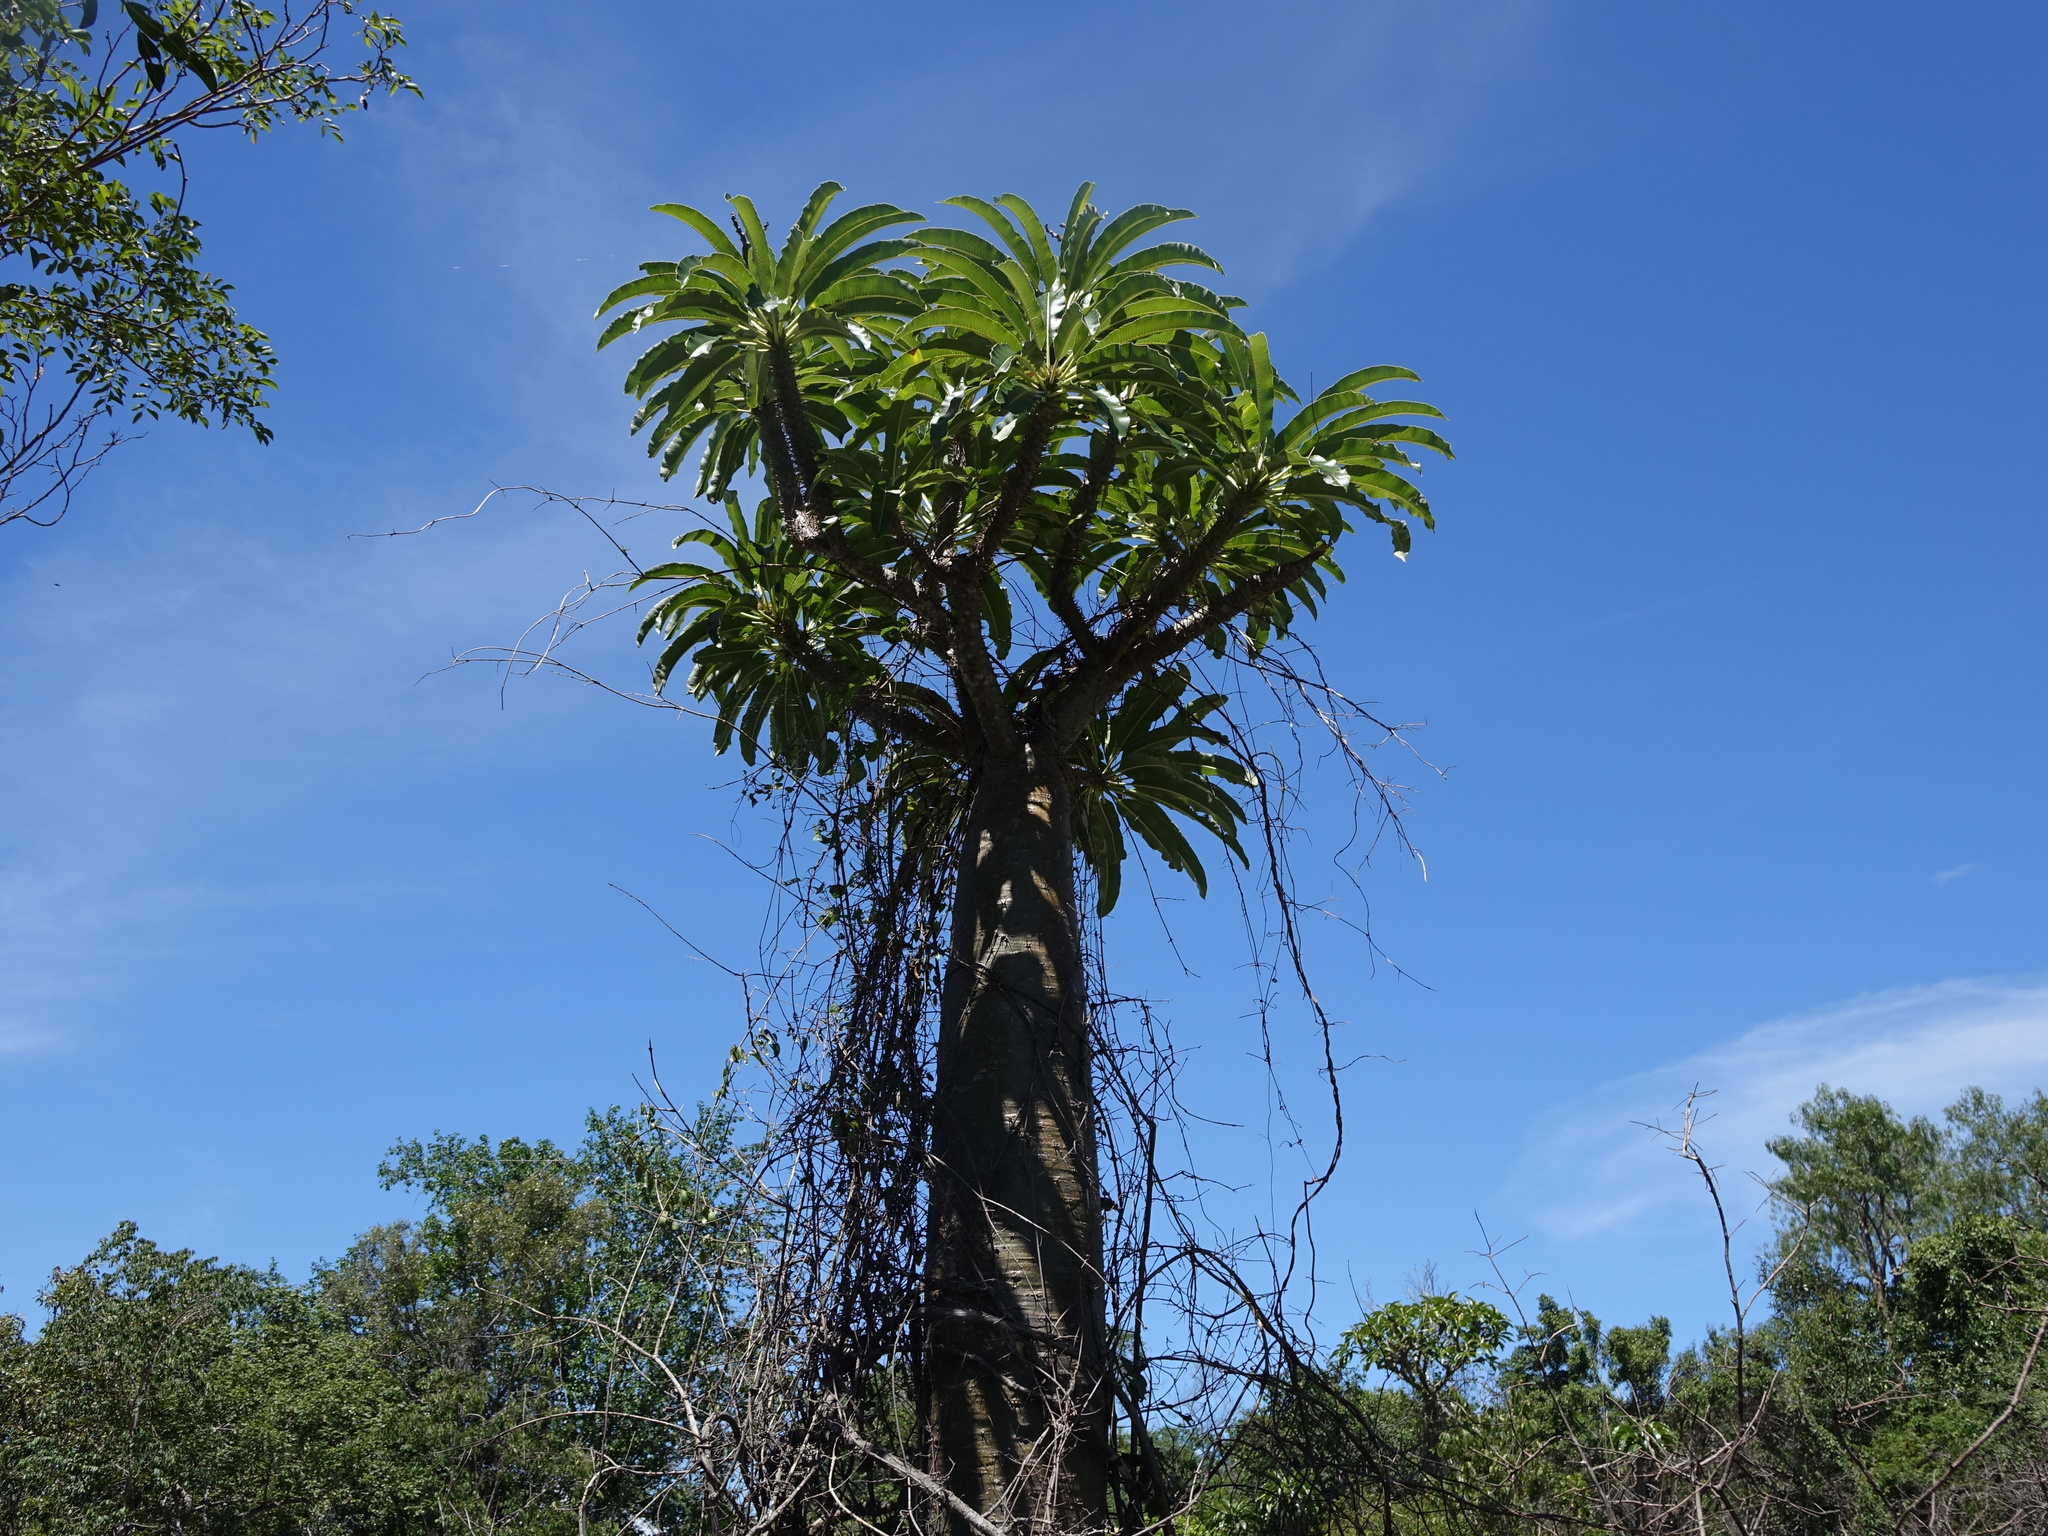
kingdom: Plantae
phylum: Tracheophyta
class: Magnoliopsida
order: Gentianales
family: Apocynaceae
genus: Pachypodium
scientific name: Pachypodium lamerei
